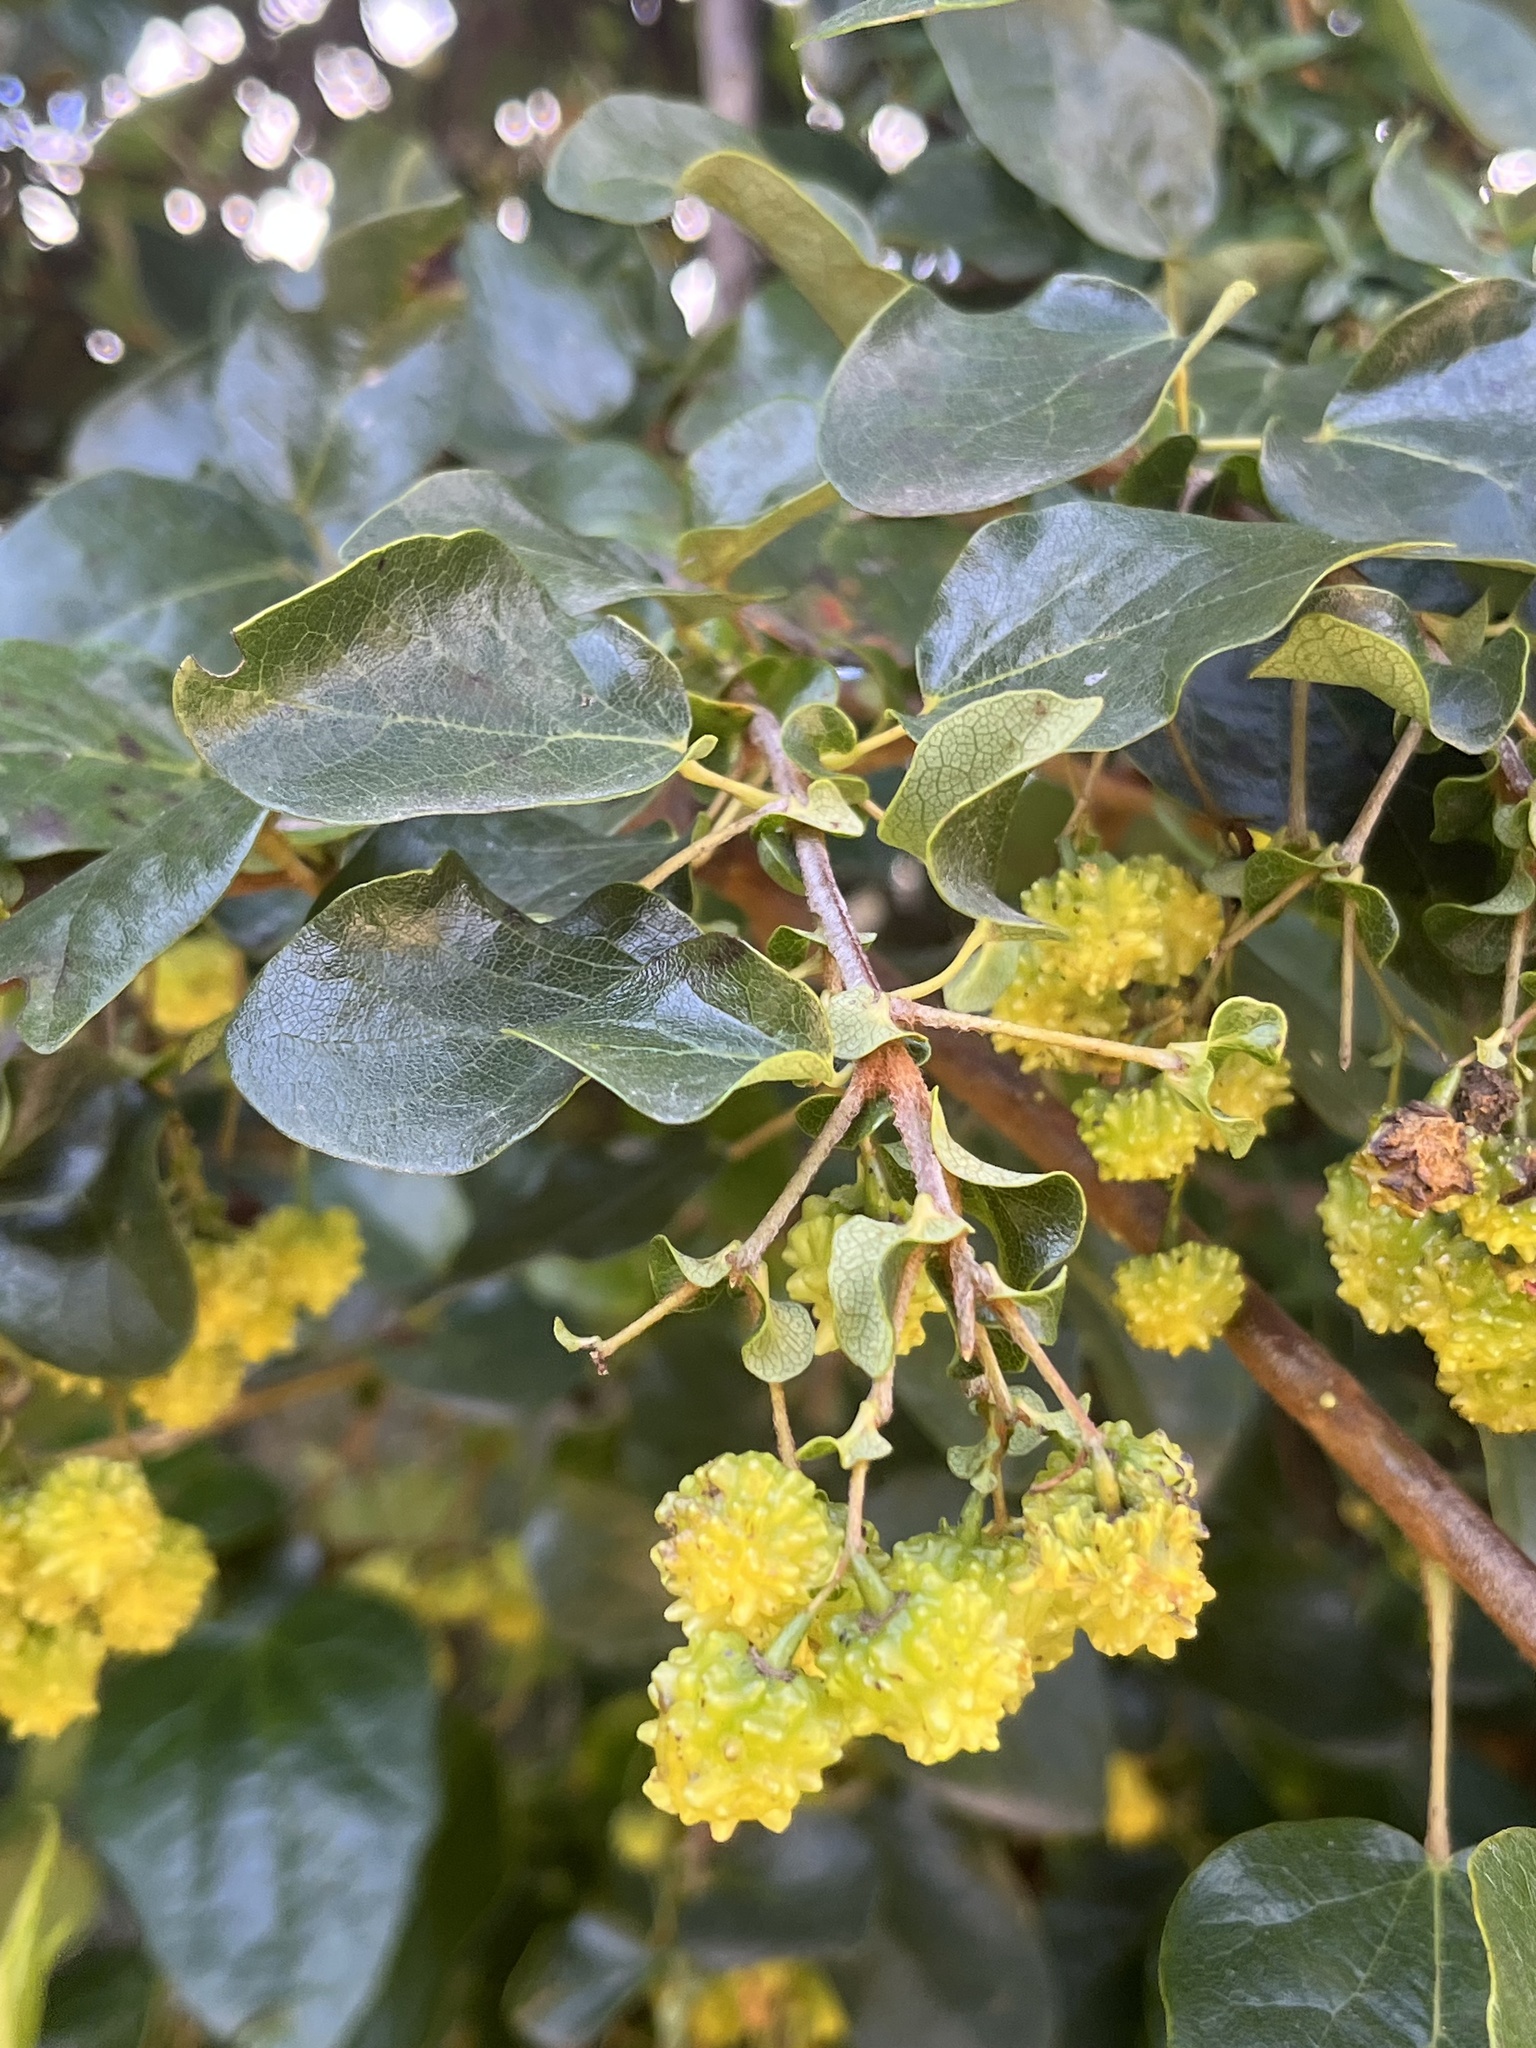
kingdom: Plantae
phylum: Tracheophyta
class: Magnoliopsida
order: Oxalidales
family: Elaeocarpaceae
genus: Vallea
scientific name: Vallea stipularis
